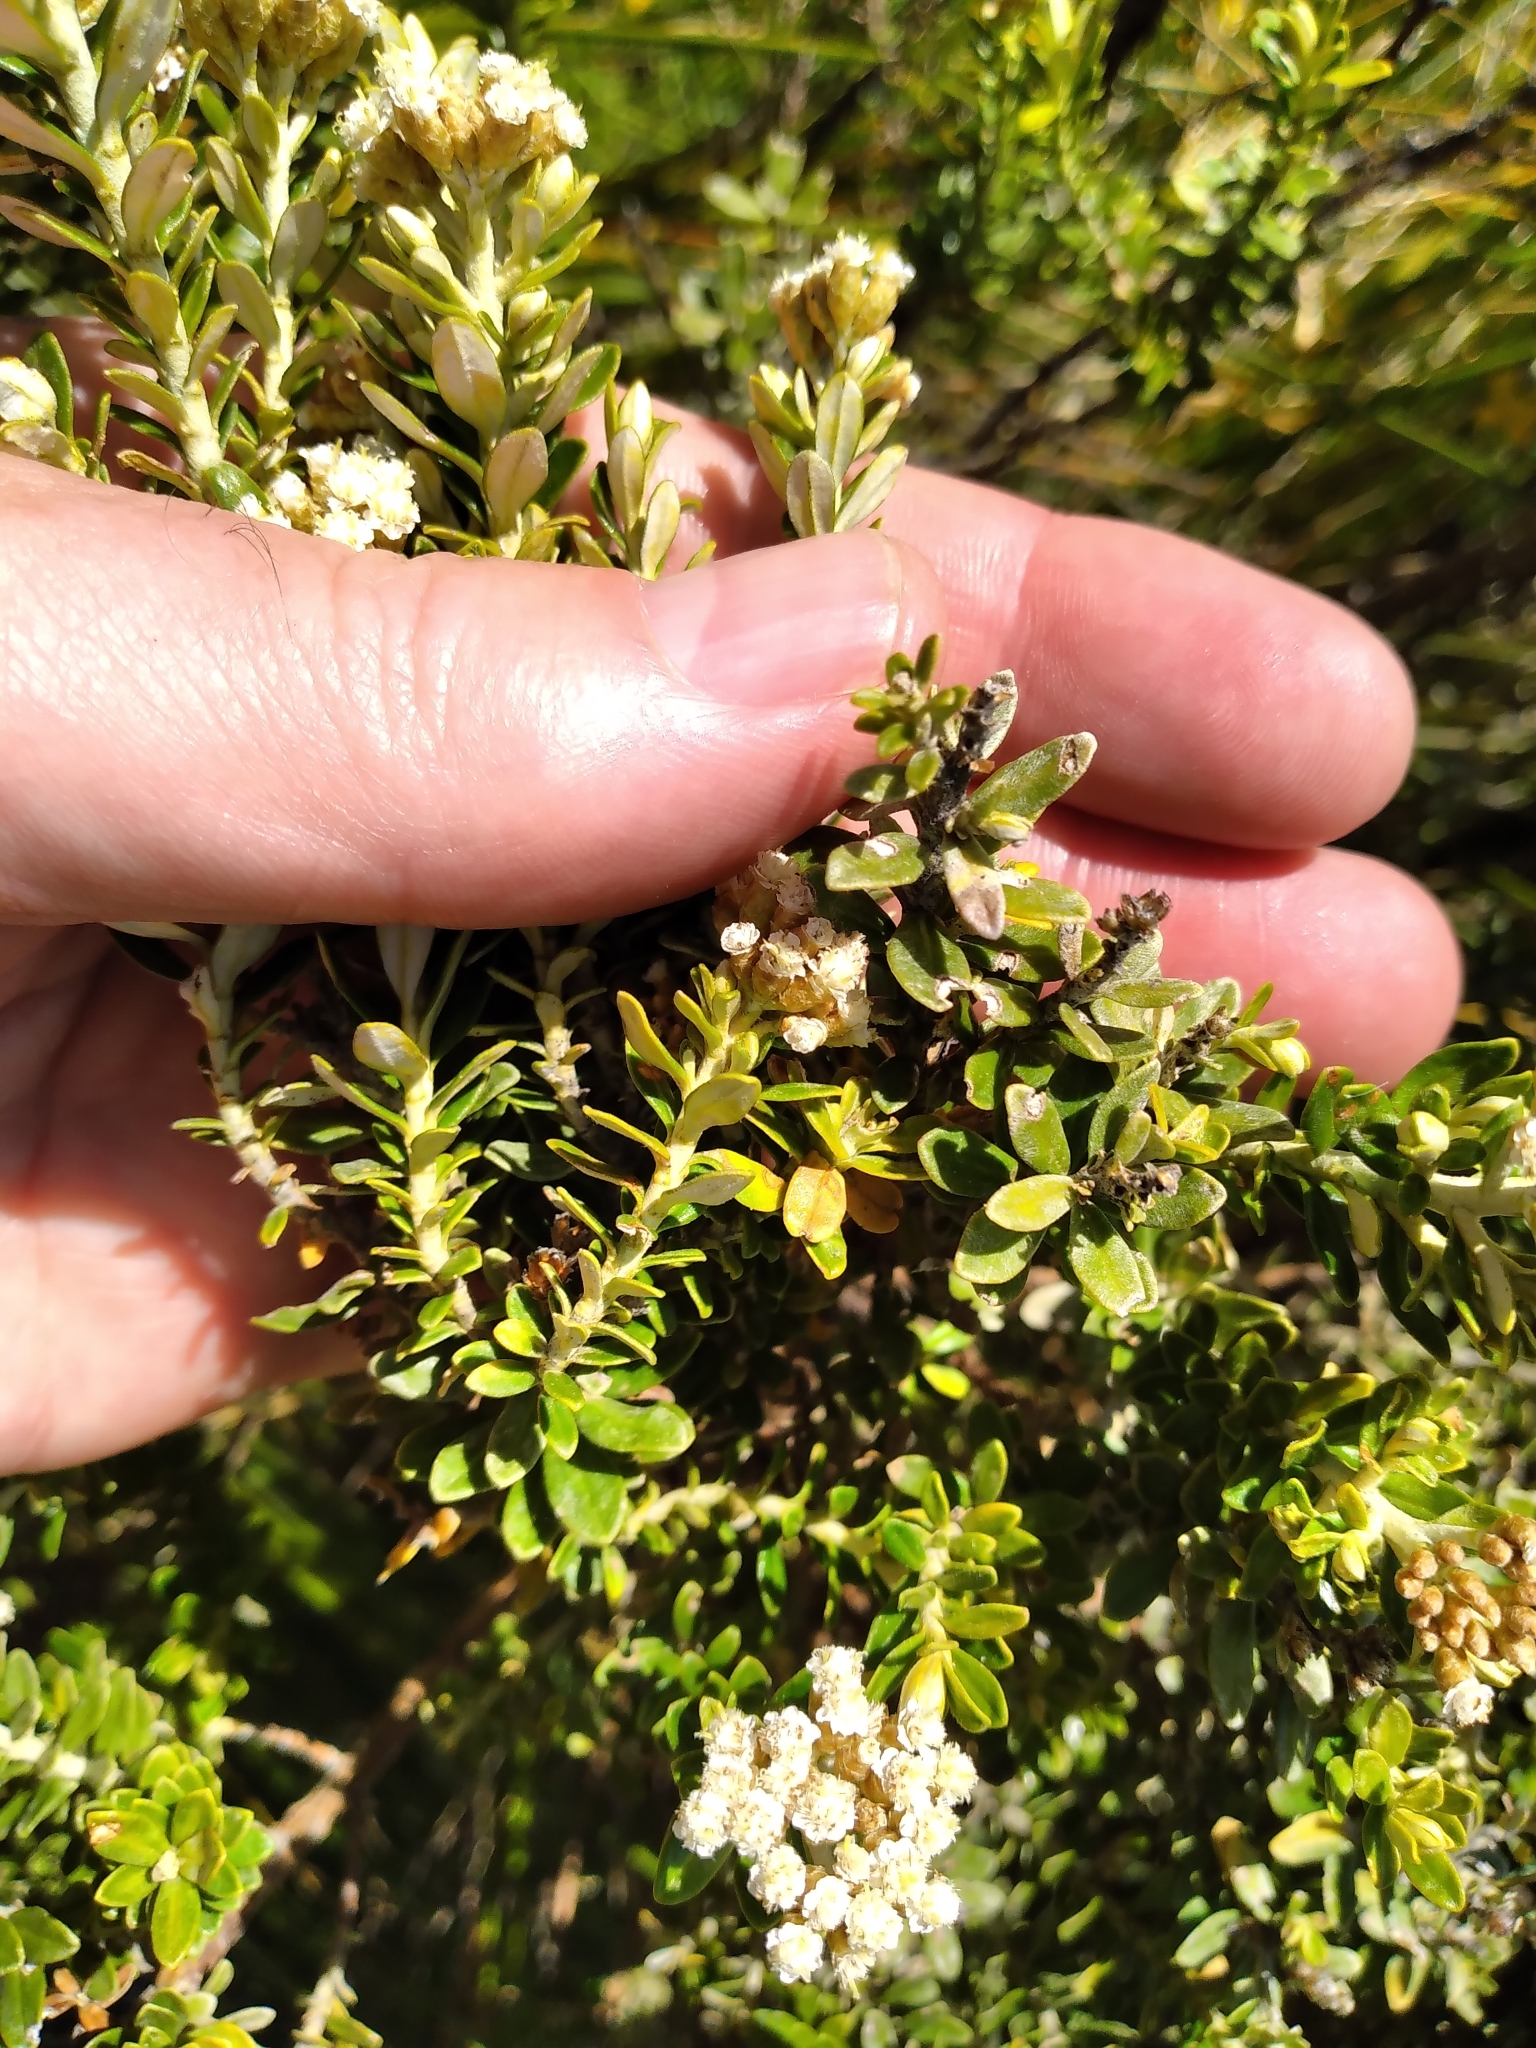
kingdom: Plantae
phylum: Tracheophyta
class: Magnoliopsida
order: Asterales
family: Asteraceae
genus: Ozothamnus
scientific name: Ozothamnus leptophyllus
